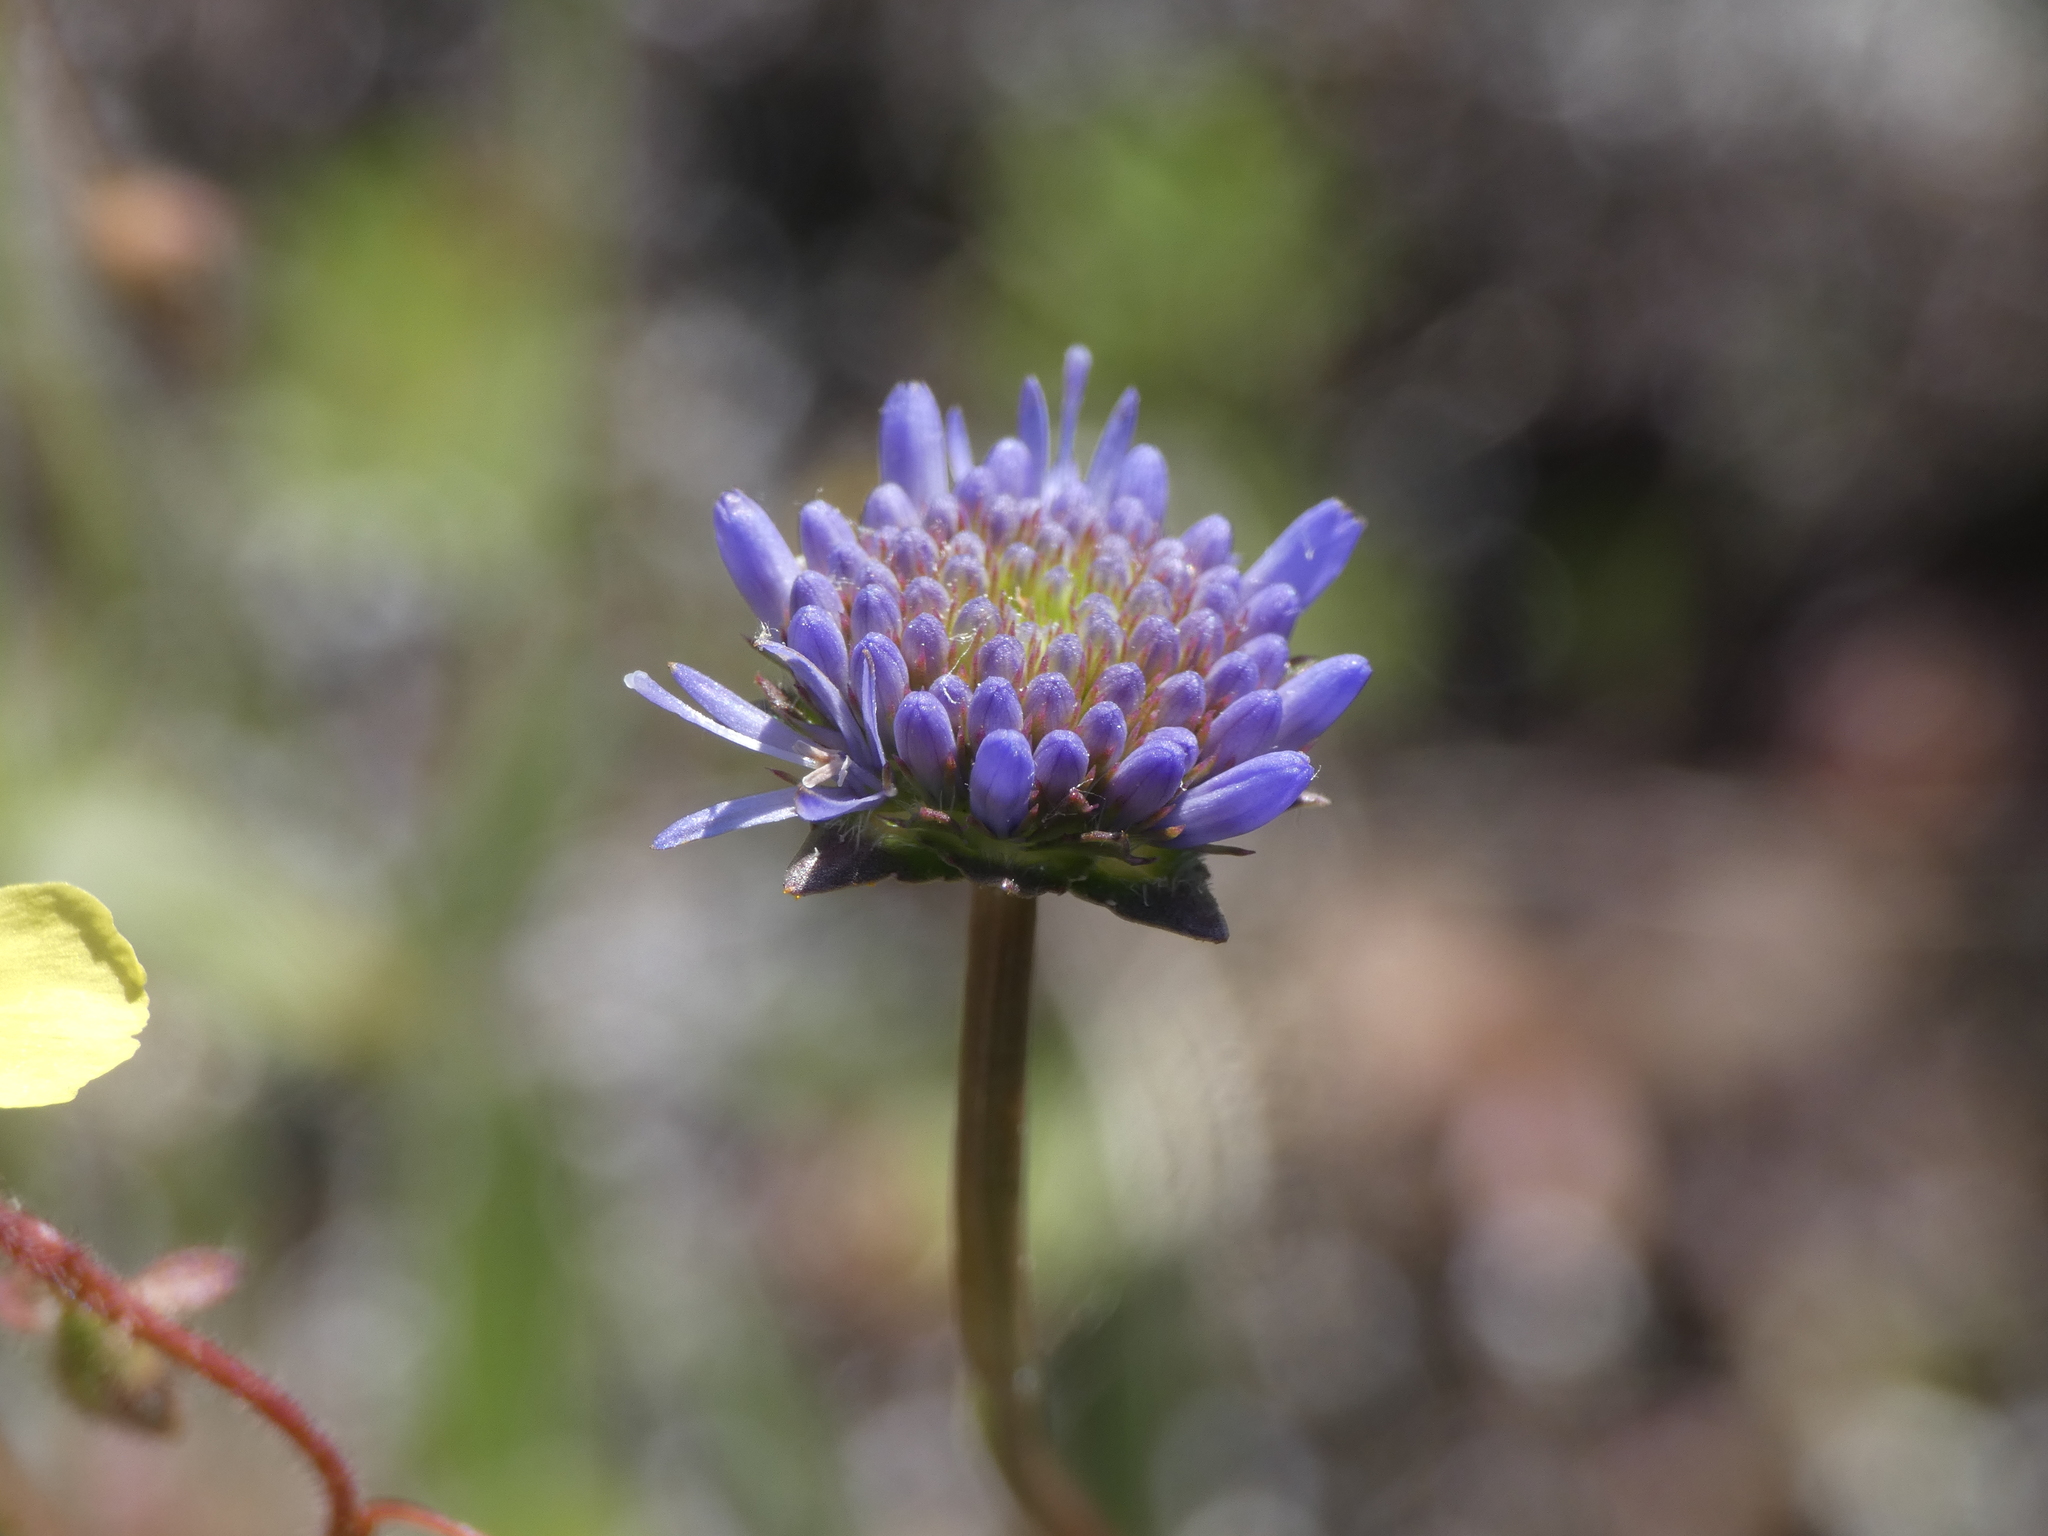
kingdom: Plantae
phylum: Tracheophyta
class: Magnoliopsida
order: Asterales
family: Campanulaceae
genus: Jasione
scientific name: Jasione montana
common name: Sheep's-bit
